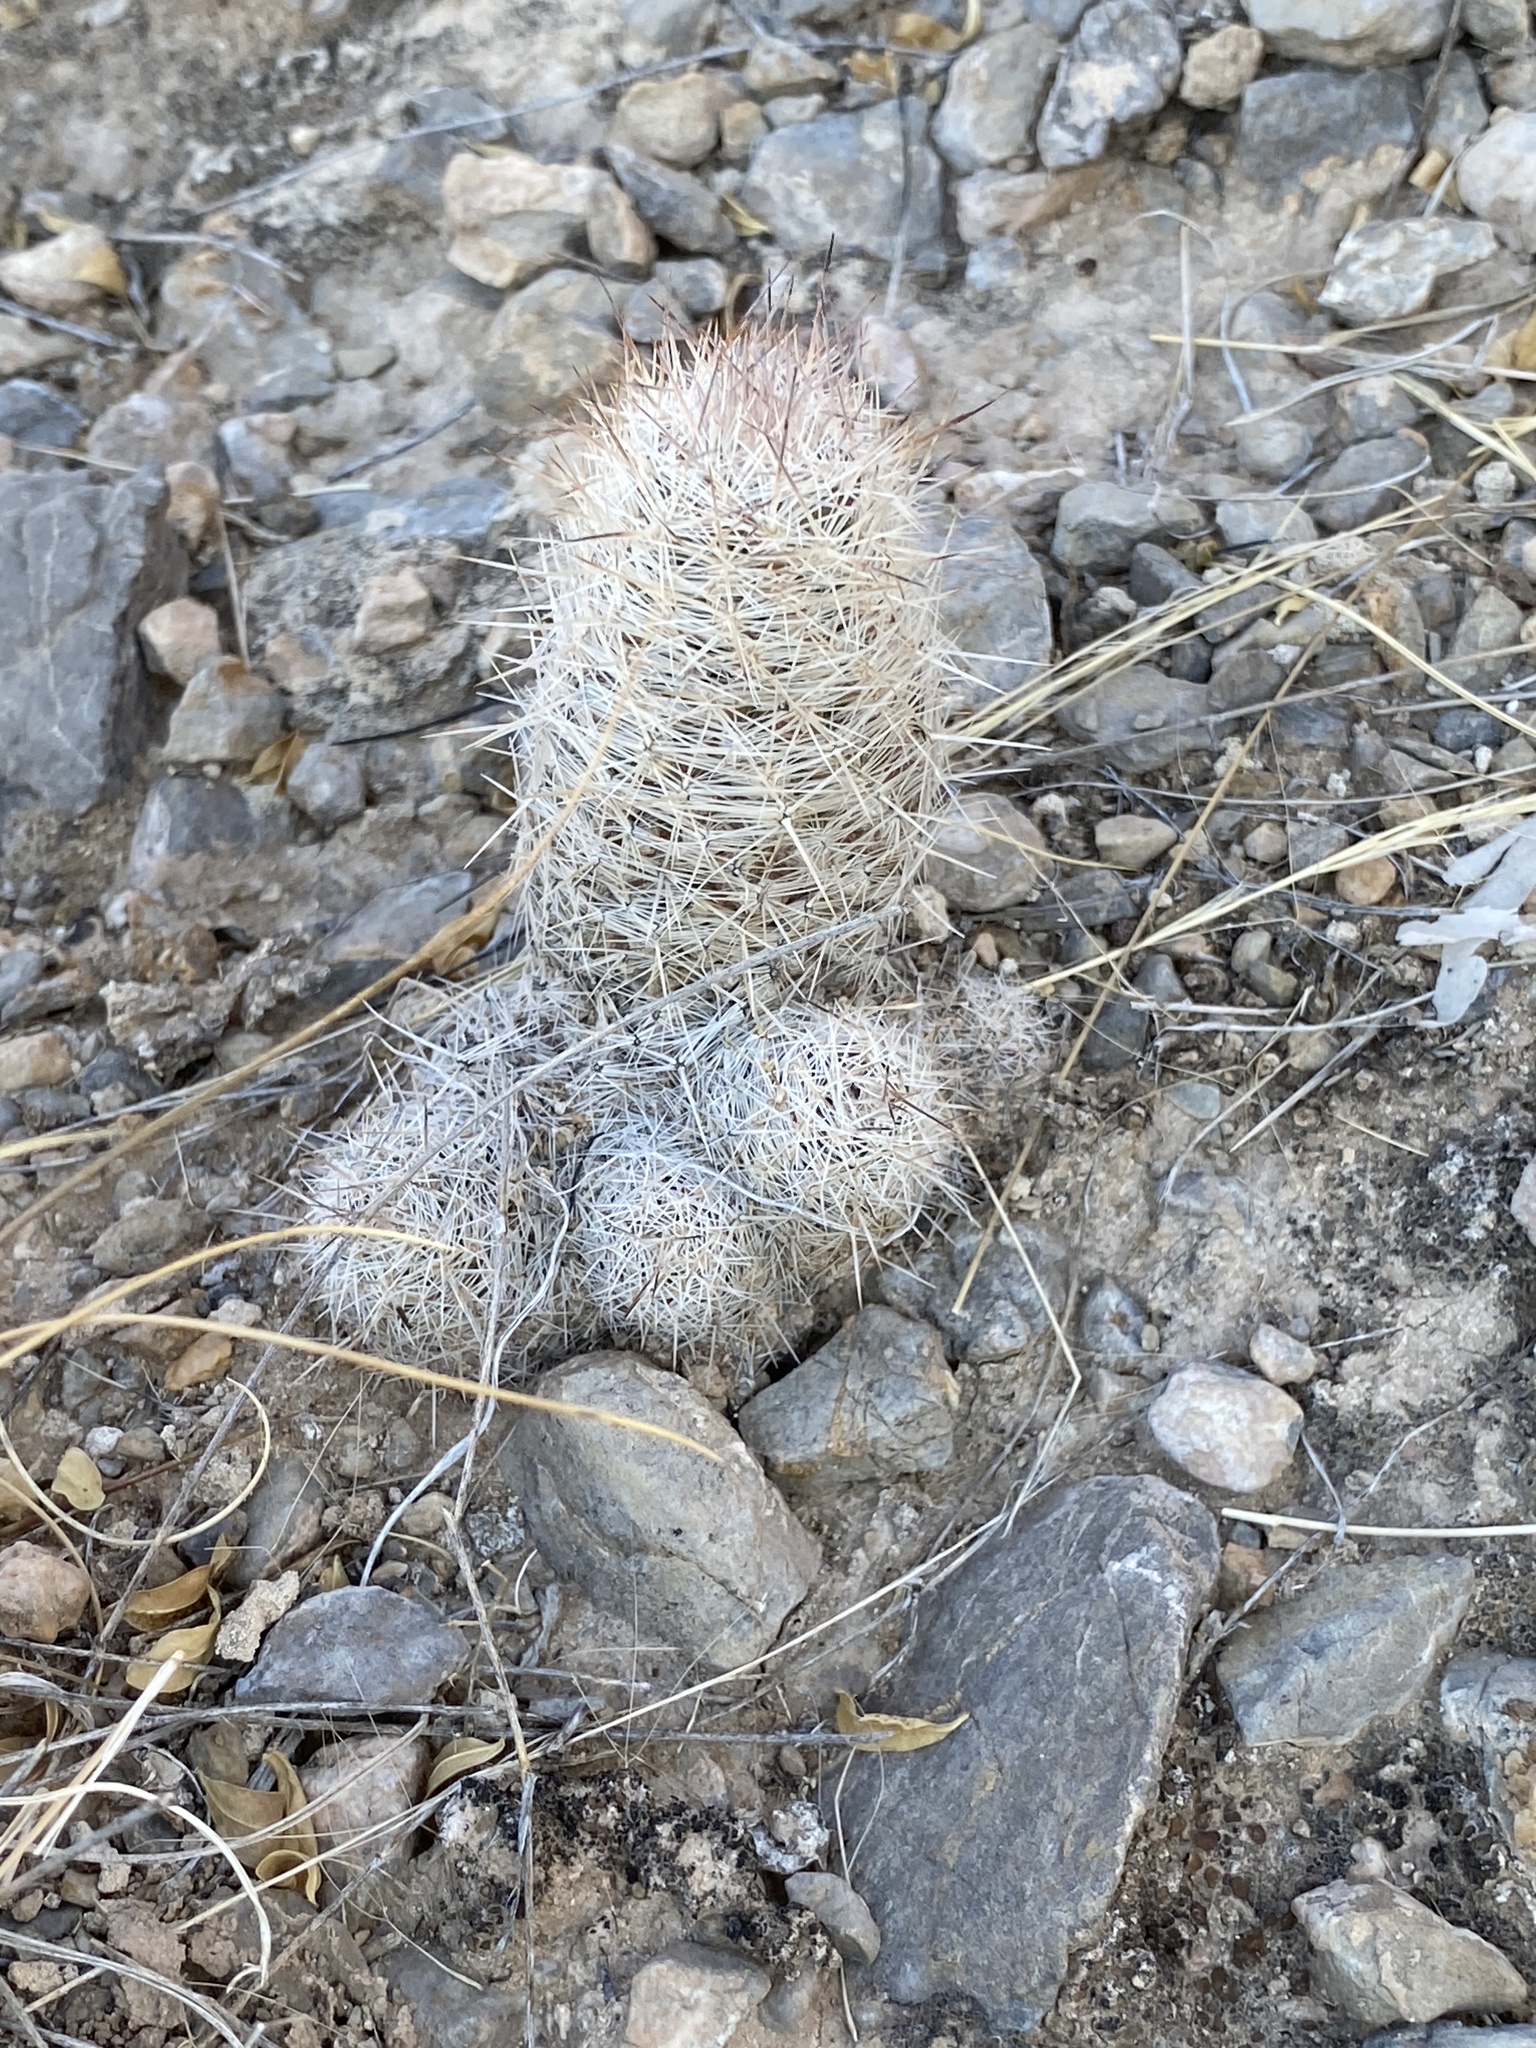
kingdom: Plantae
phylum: Tracheophyta
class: Magnoliopsida
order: Caryophyllales
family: Cactaceae
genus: Pelecyphora
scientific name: Pelecyphora tuberculosa
